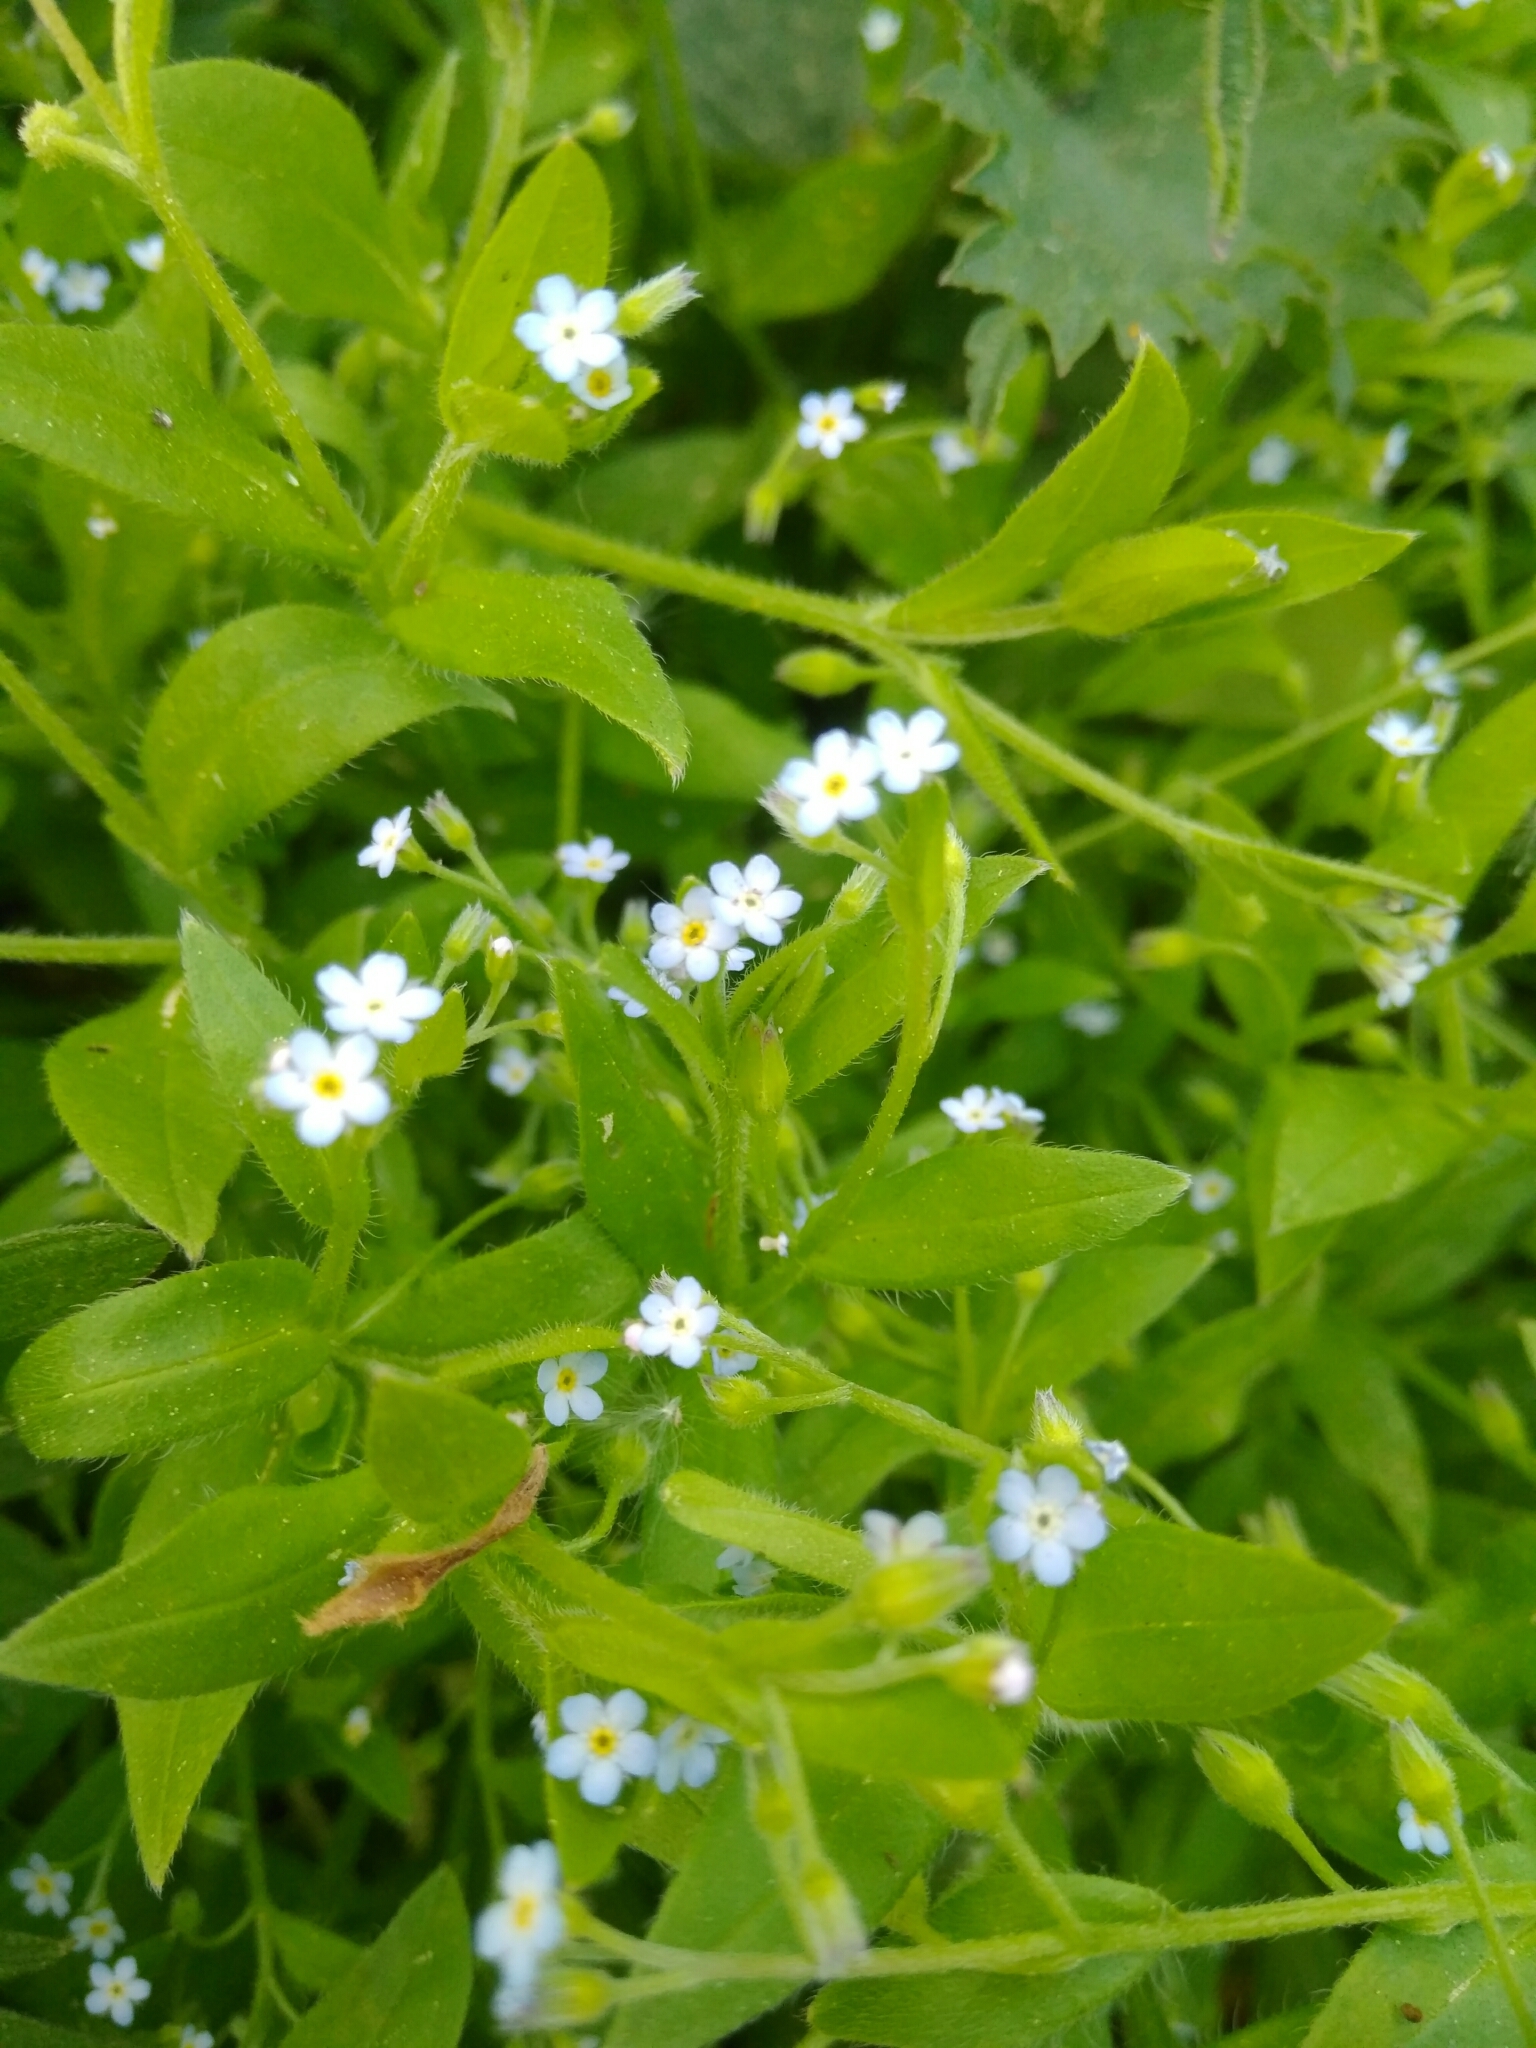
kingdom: Plantae
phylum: Tracheophyta
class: Magnoliopsida
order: Boraginales
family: Boraginaceae
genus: Myosotis
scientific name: Myosotis sparsiflora
